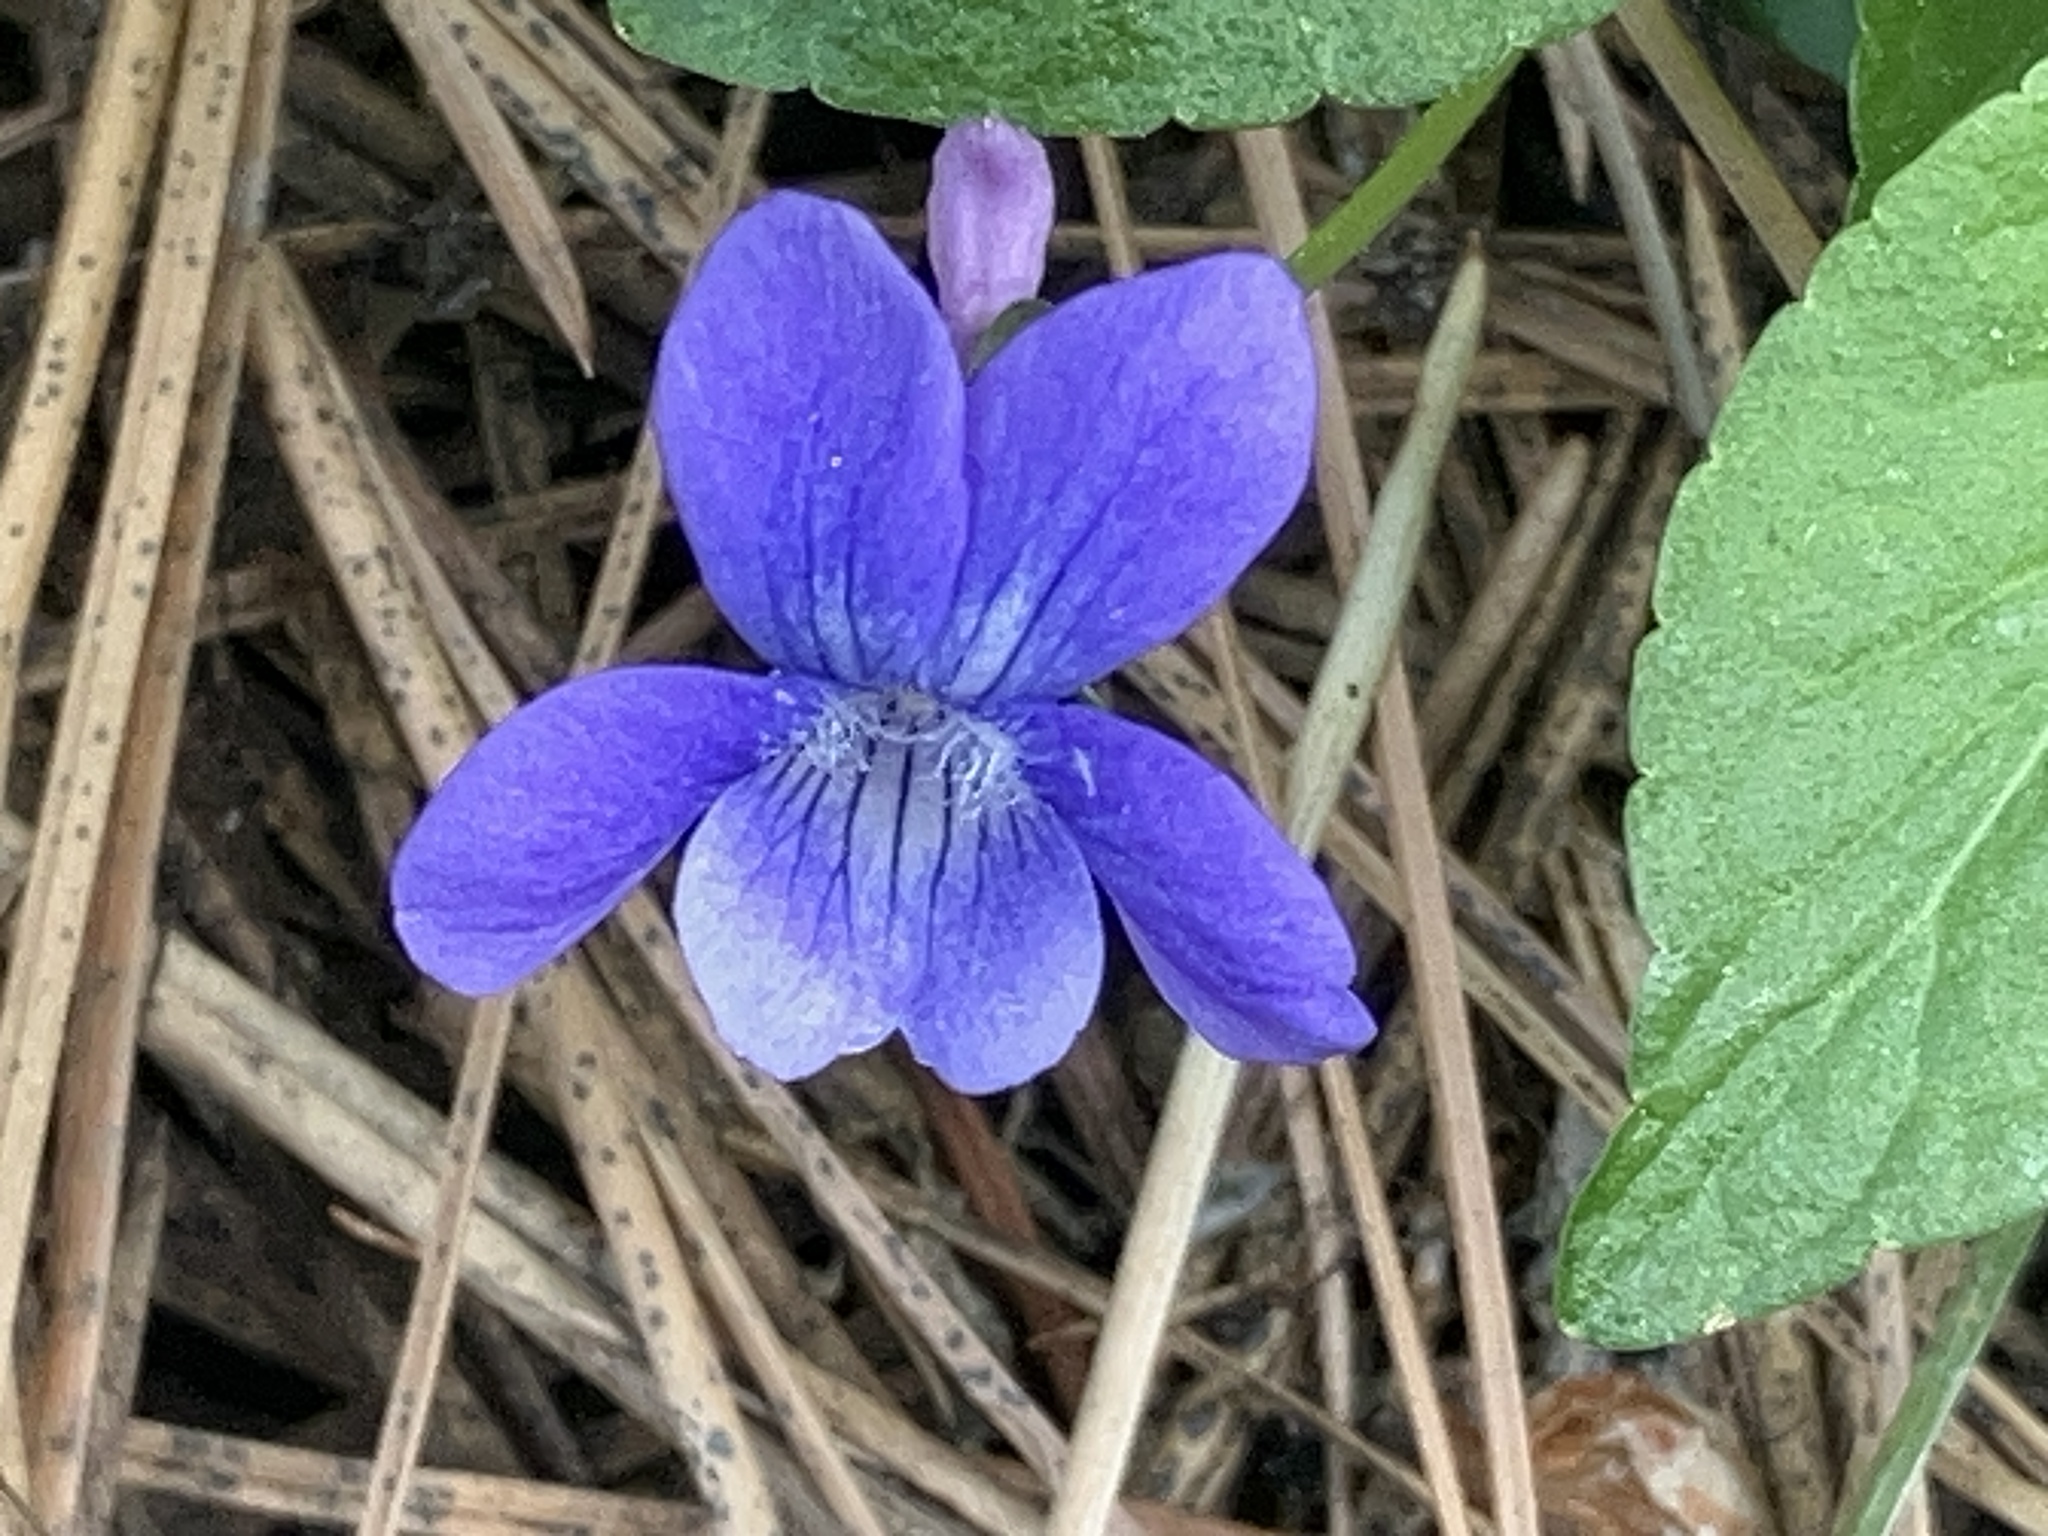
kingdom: Plantae
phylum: Tracheophyta
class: Magnoliopsida
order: Malpighiales
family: Violaceae
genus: Viola
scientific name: Viola adunca
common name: Sand violet
